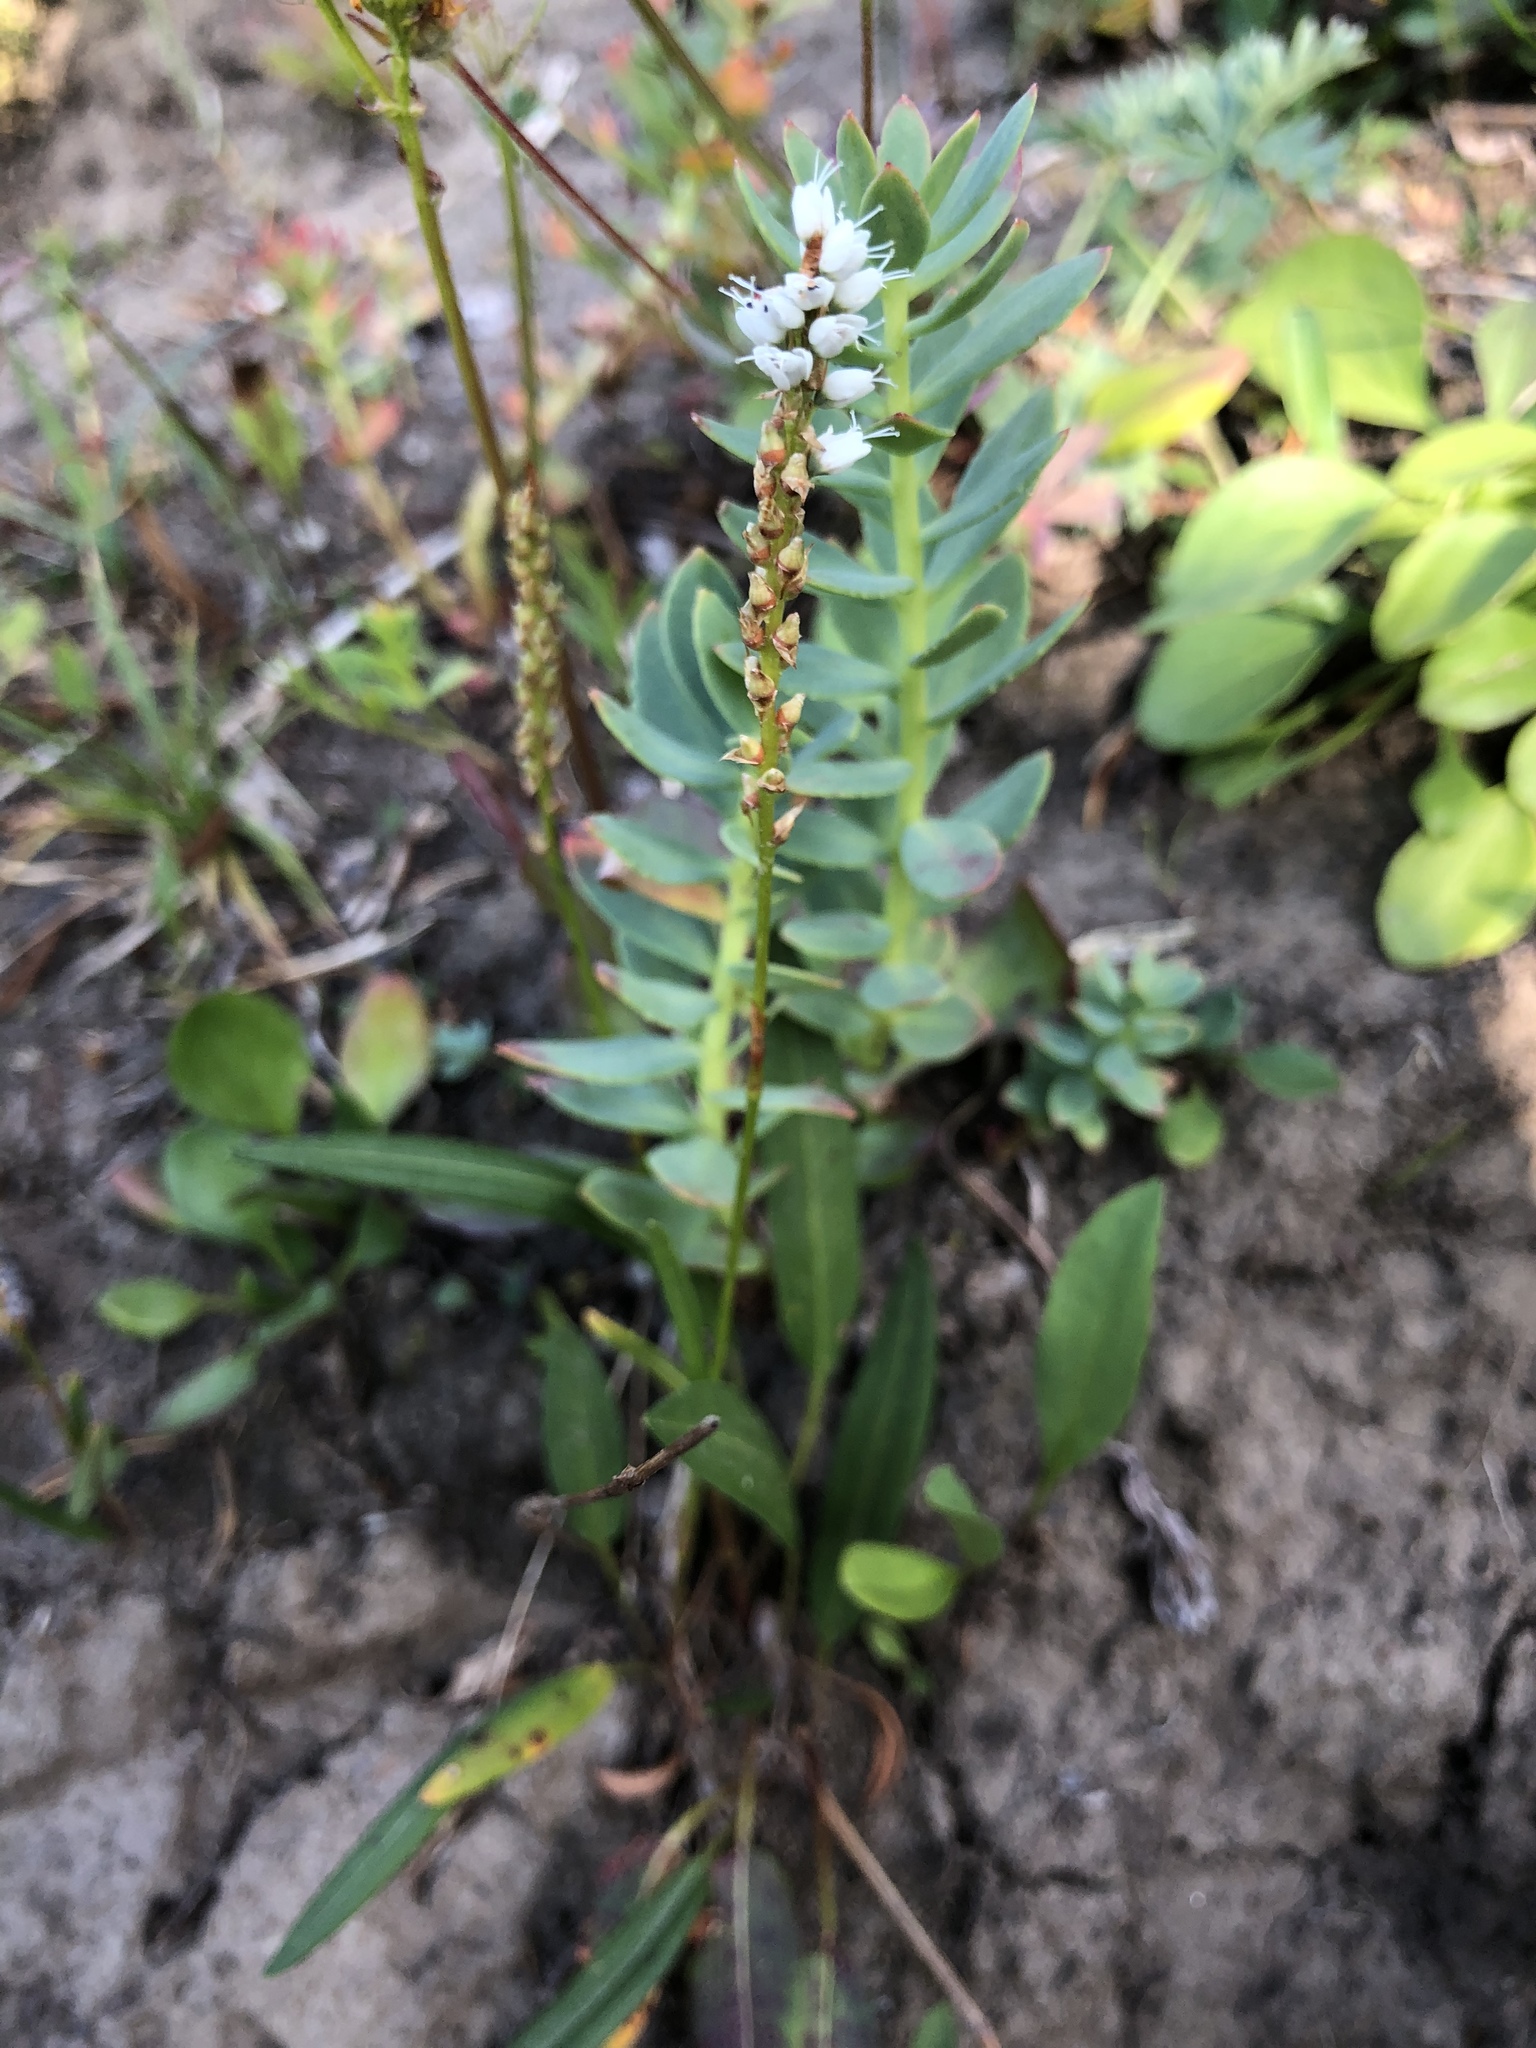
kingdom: Plantae
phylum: Tracheophyta
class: Magnoliopsida
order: Caryophyllales
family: Polygonaceae
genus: Bistorta
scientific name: Bistorta vivipara
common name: Alpine bistort
